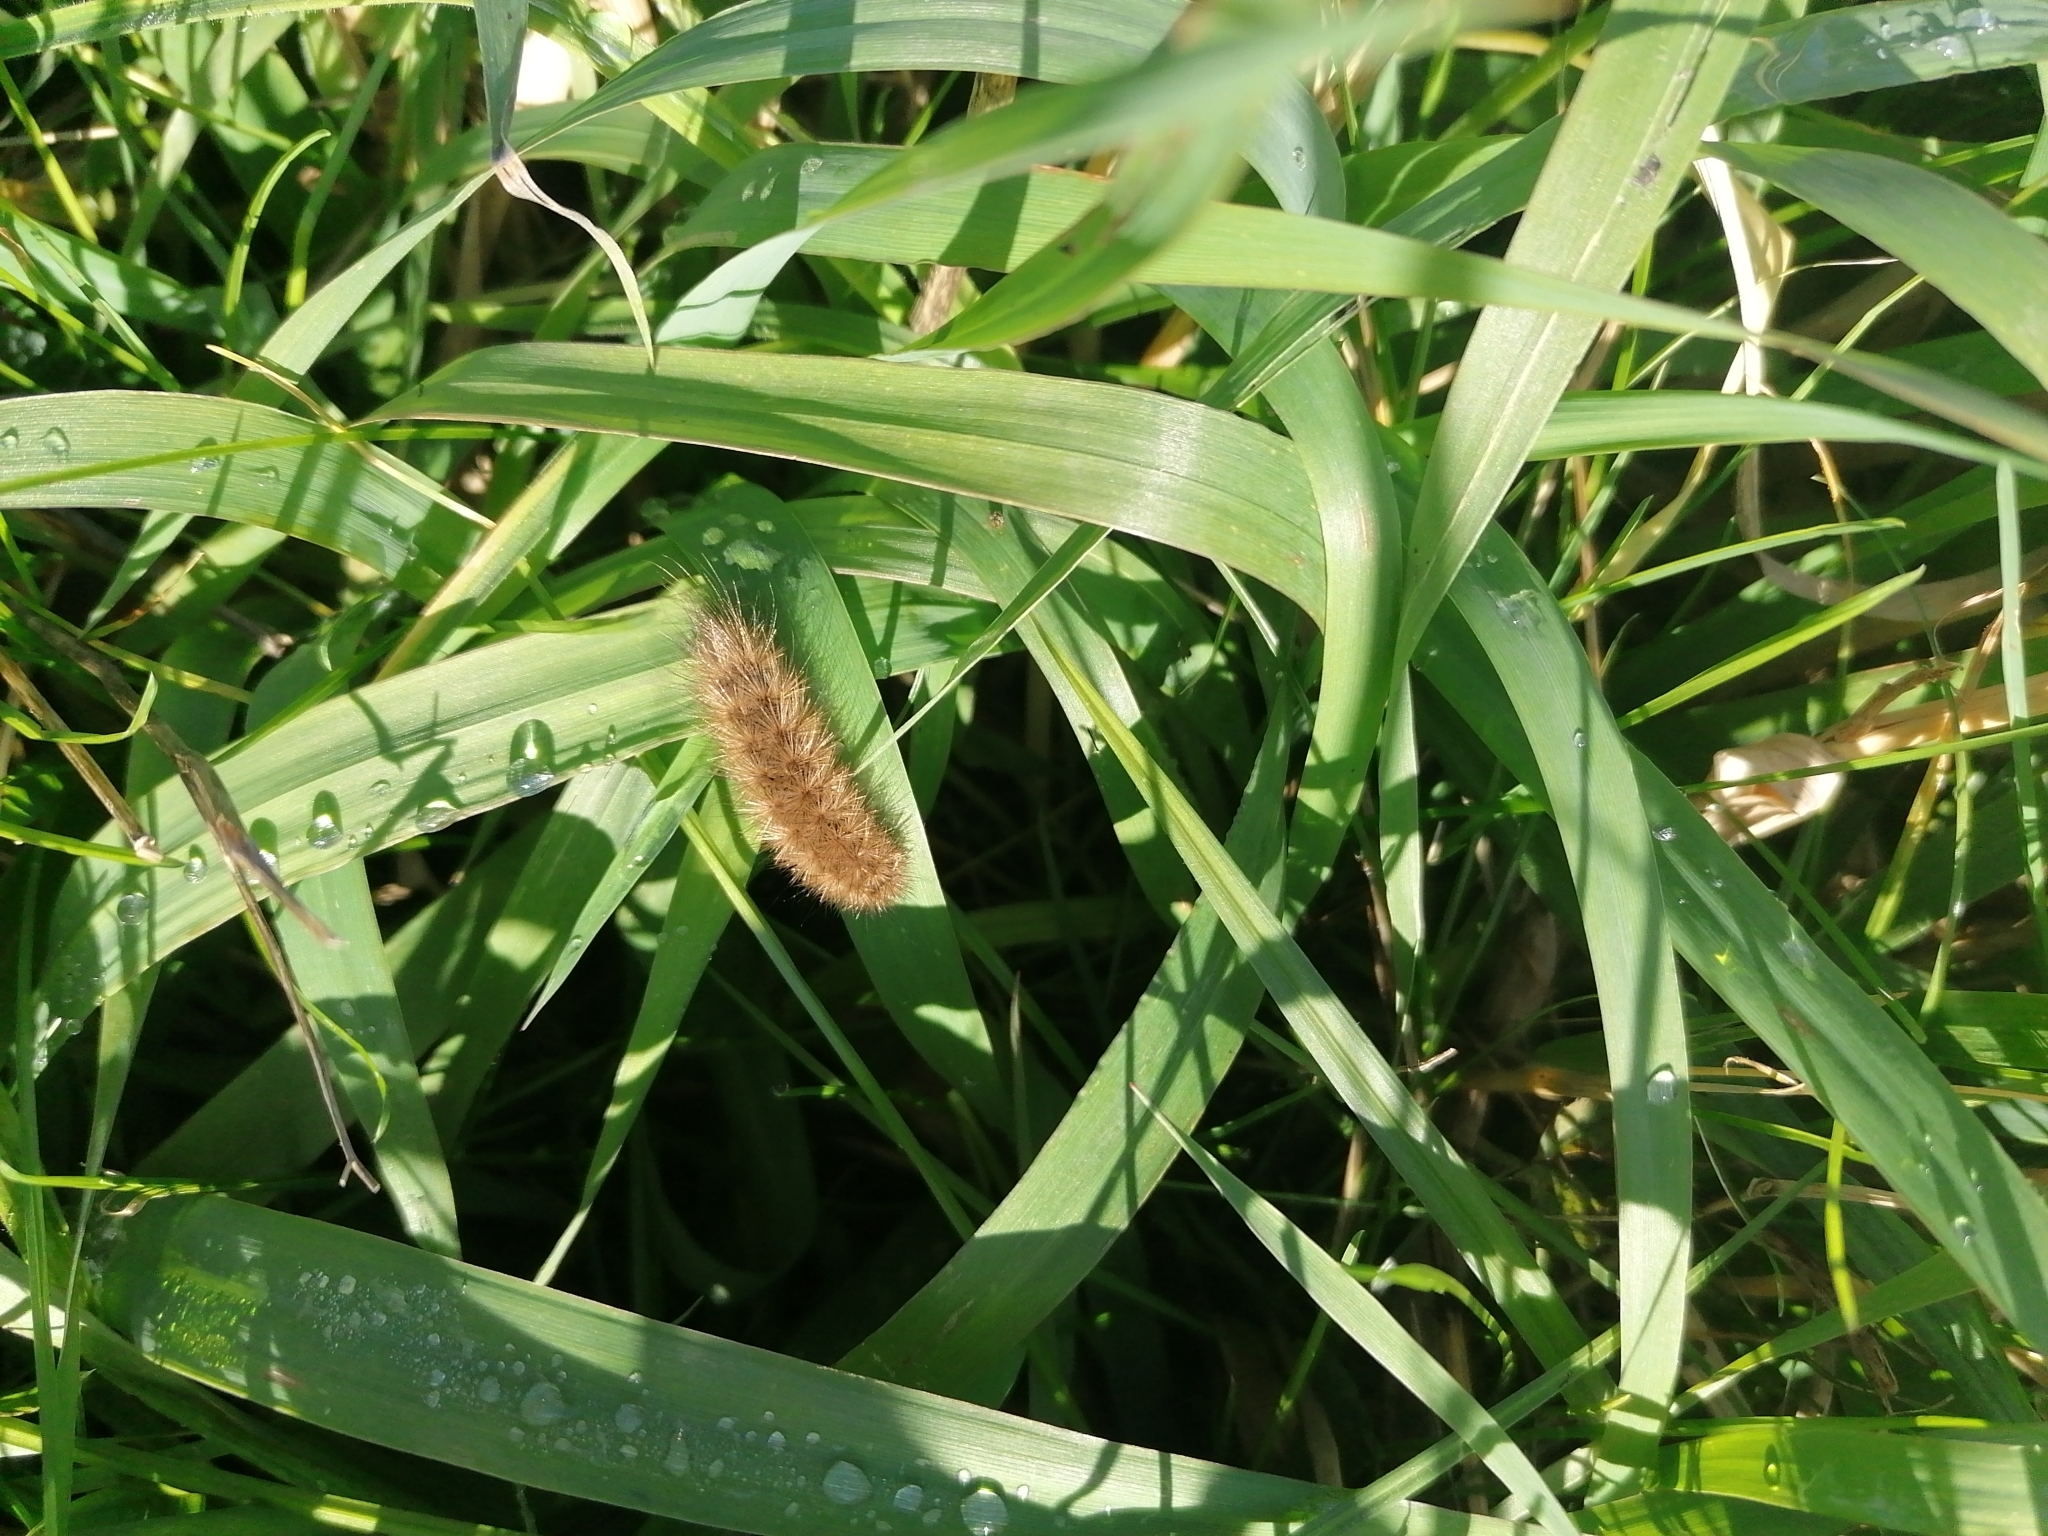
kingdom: Animalia
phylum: Arthropoda
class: Insecta
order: Lepidoptera
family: Erebidae
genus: Phragmatobia
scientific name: Phragmatobia fuliginosa
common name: Ruby tiger
